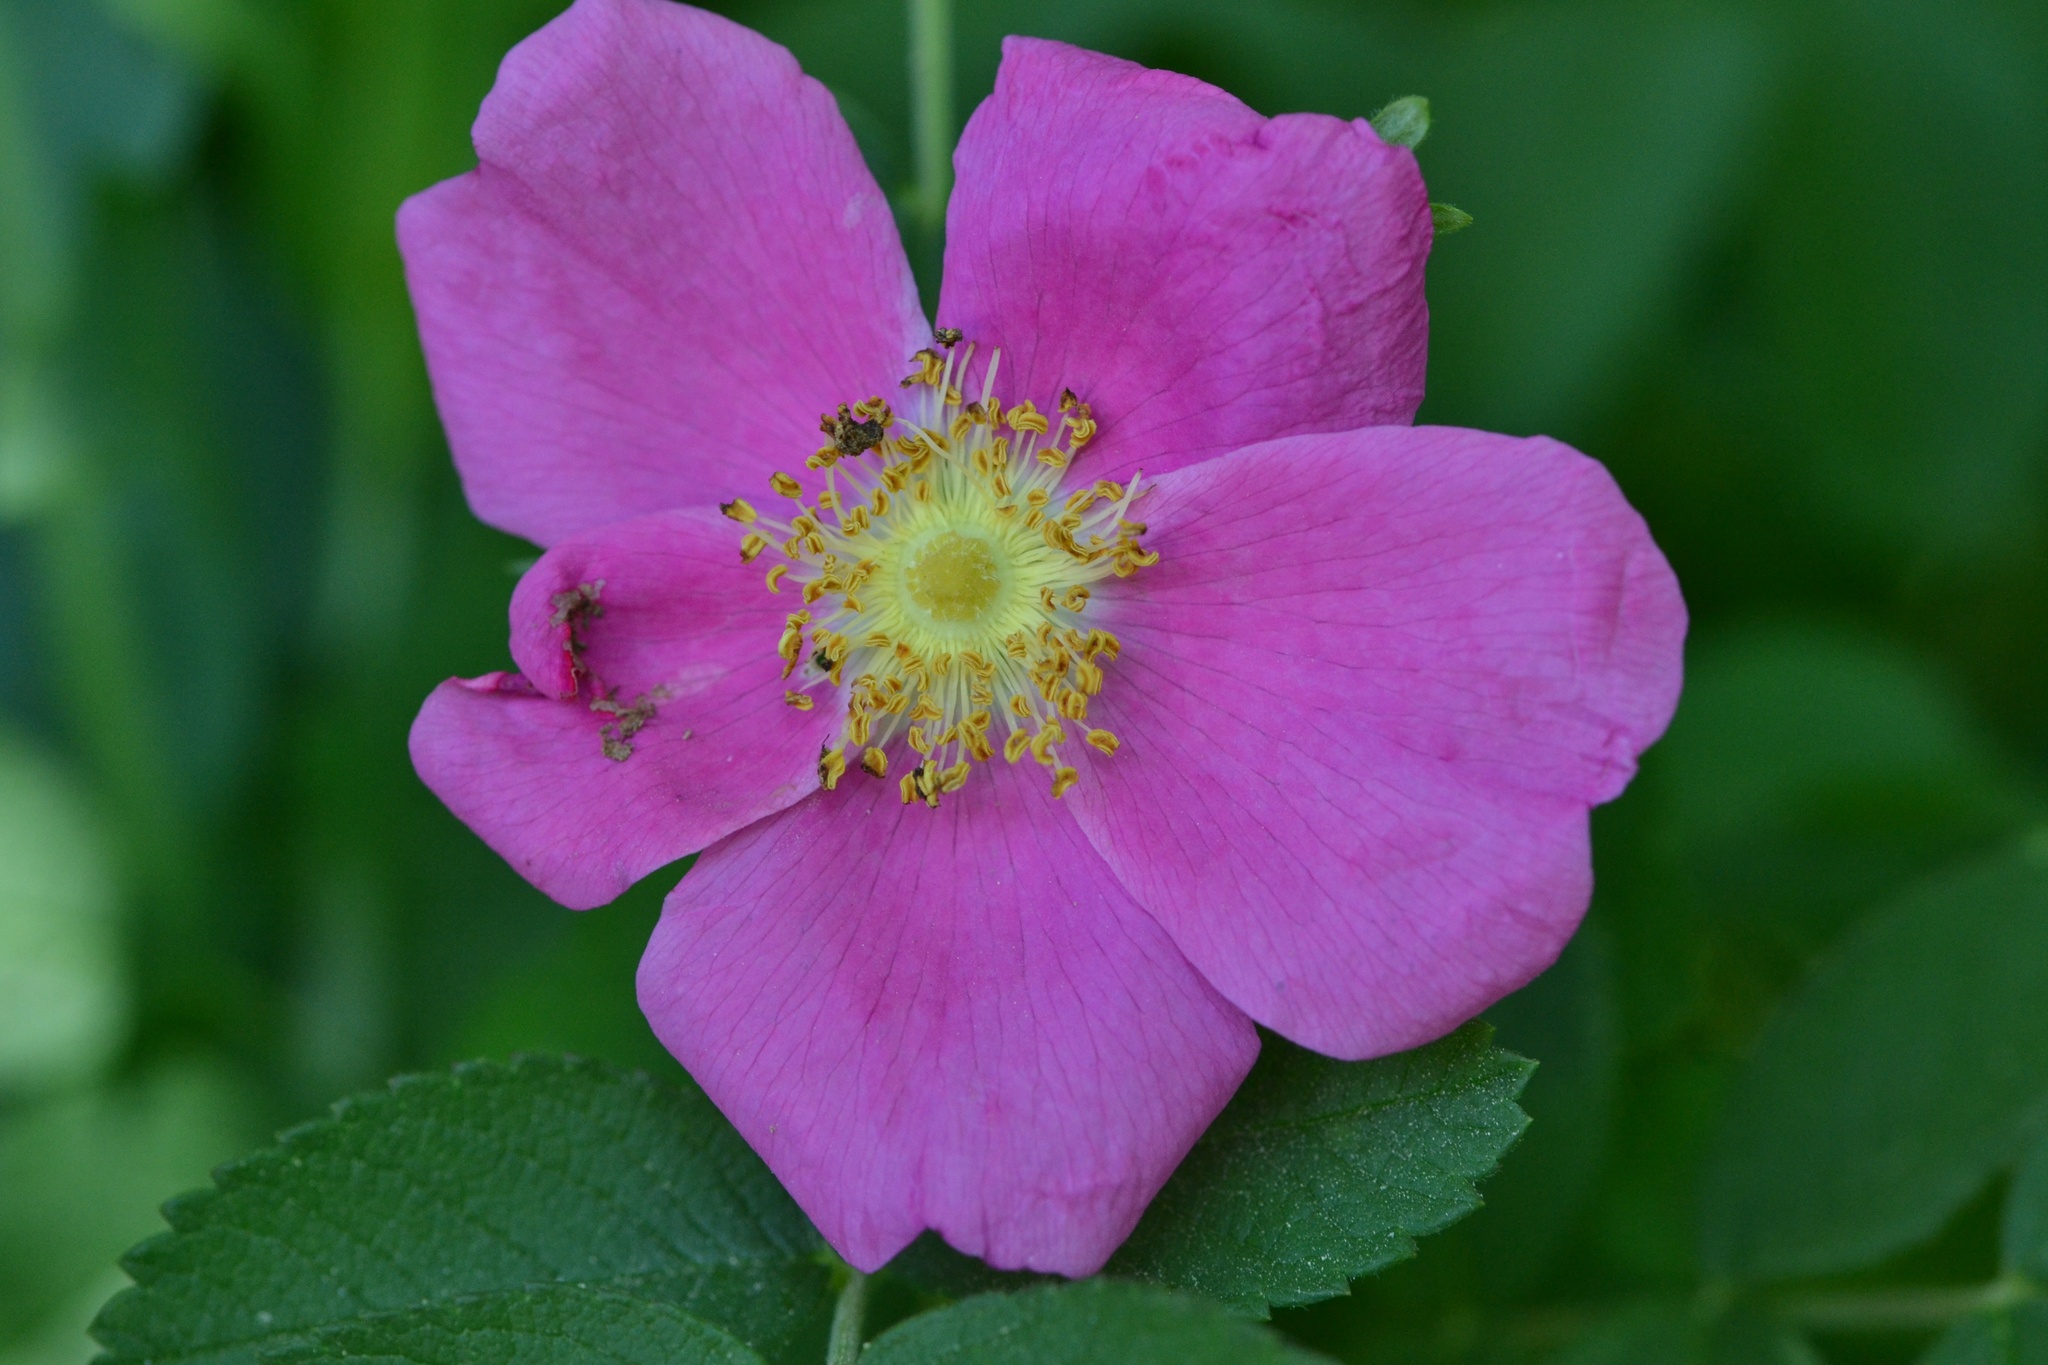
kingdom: Plantae
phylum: Tracheophyta
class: Magnoliopsida
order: Rosales
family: Rosaceae
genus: Rosa
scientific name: Rosa rugosa
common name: Japanese rose
